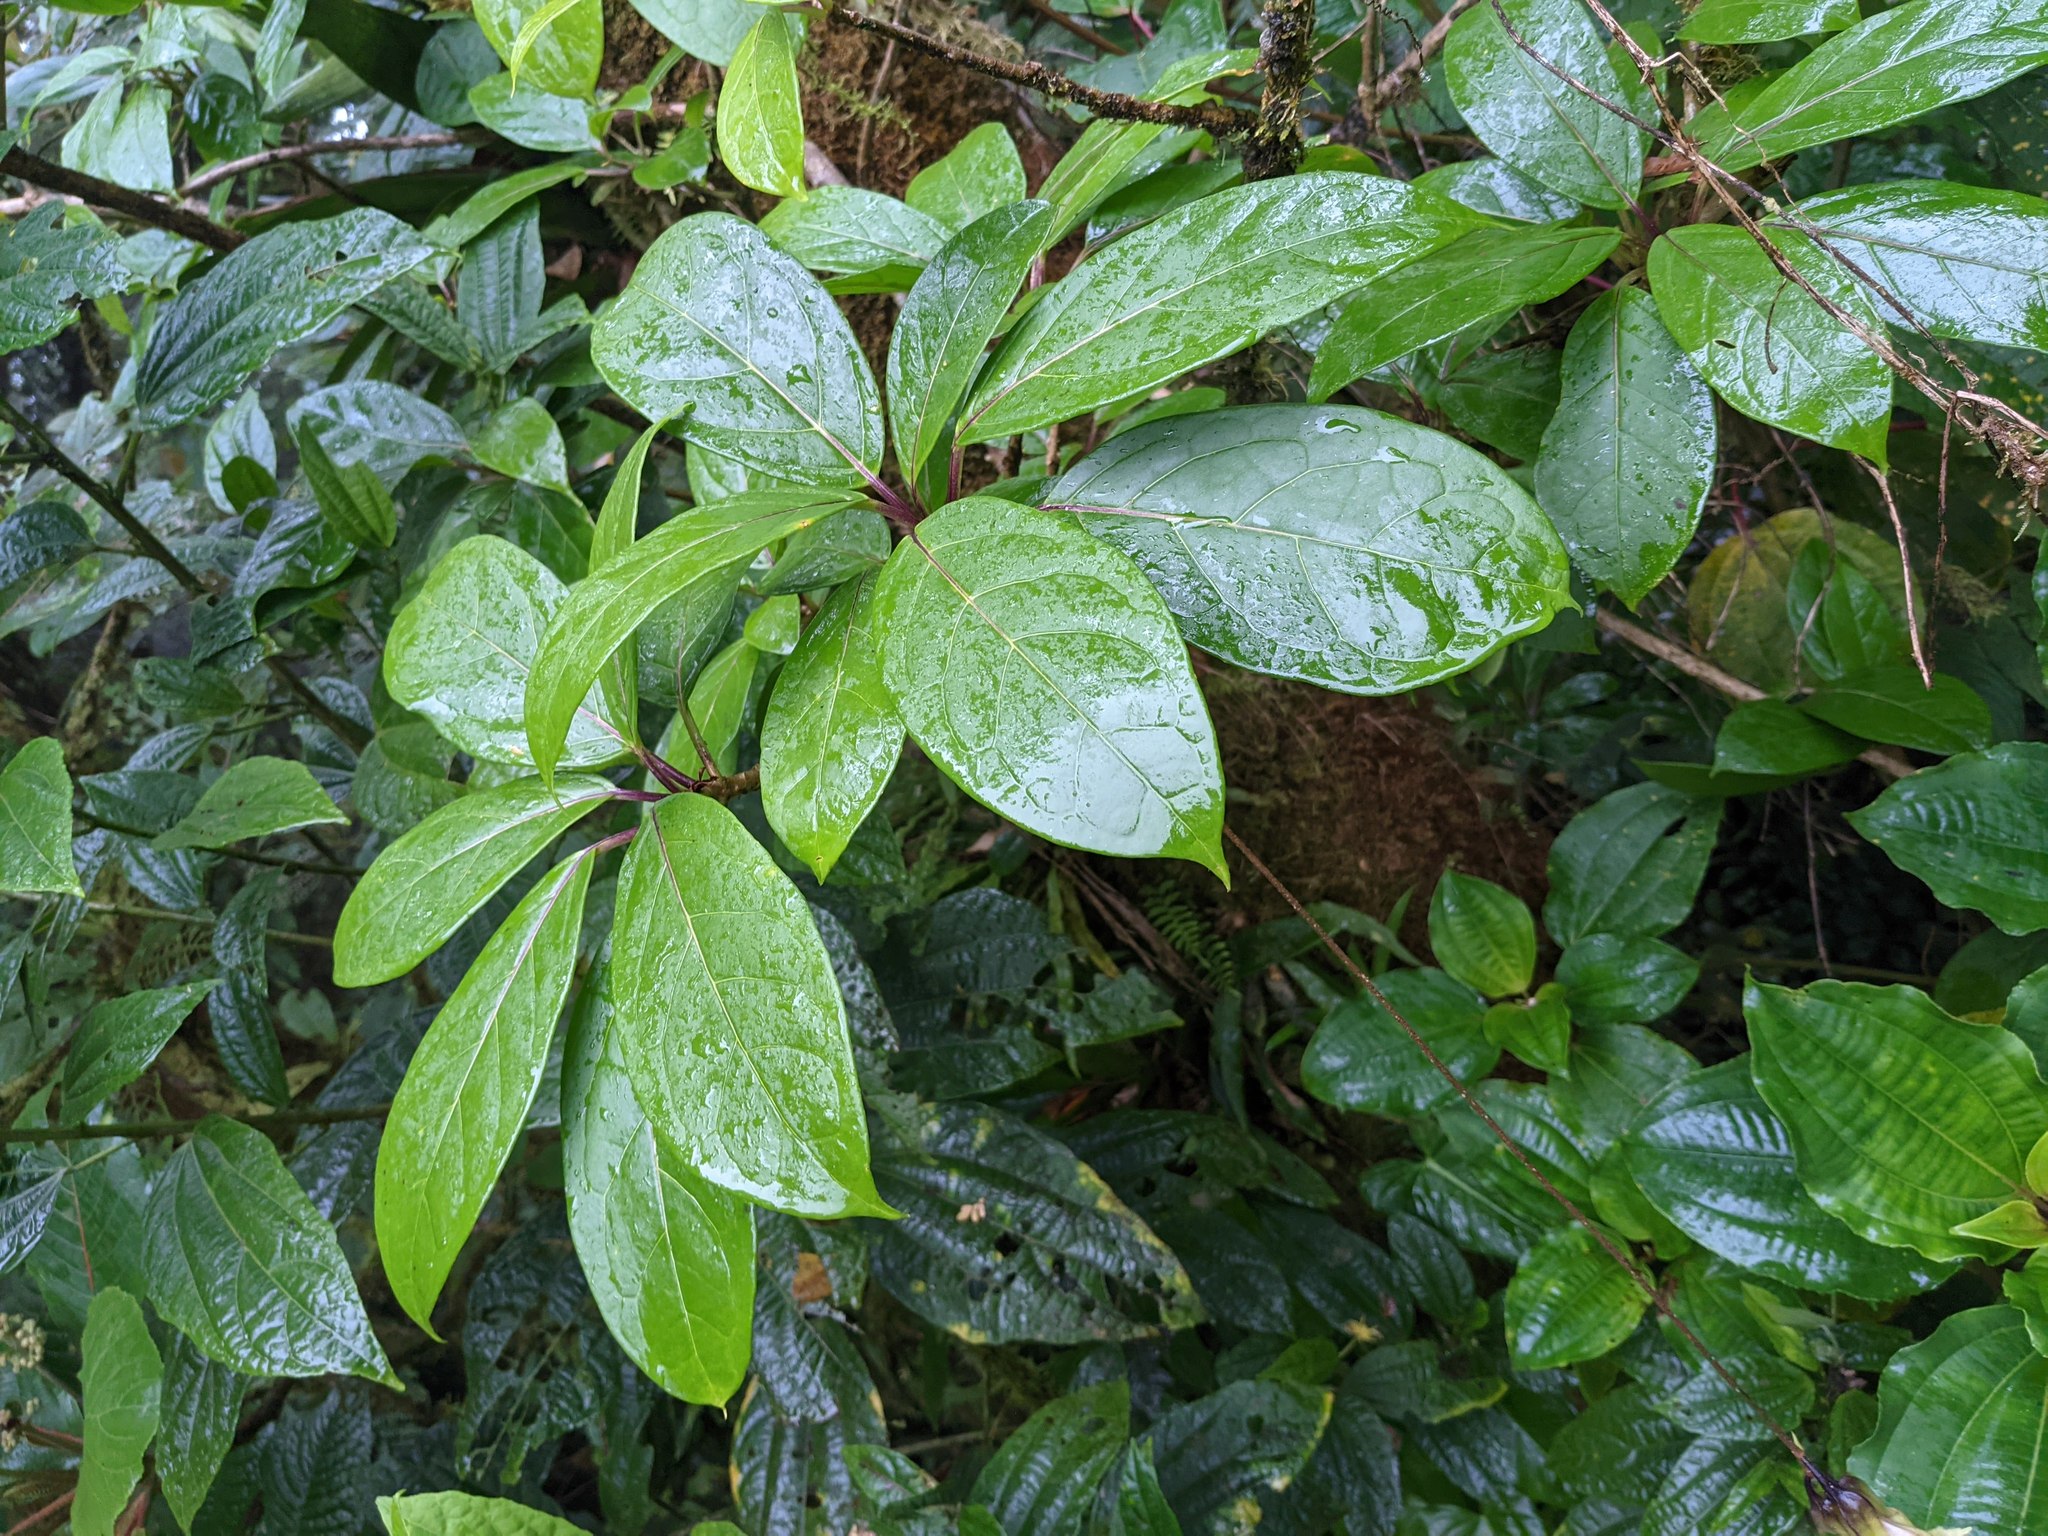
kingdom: Plantae
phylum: Tracheophyta
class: Magnoliopsida
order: Solanales
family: Solanaceae
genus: Merinthopodium
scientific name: Merinthopodium neuranthum
